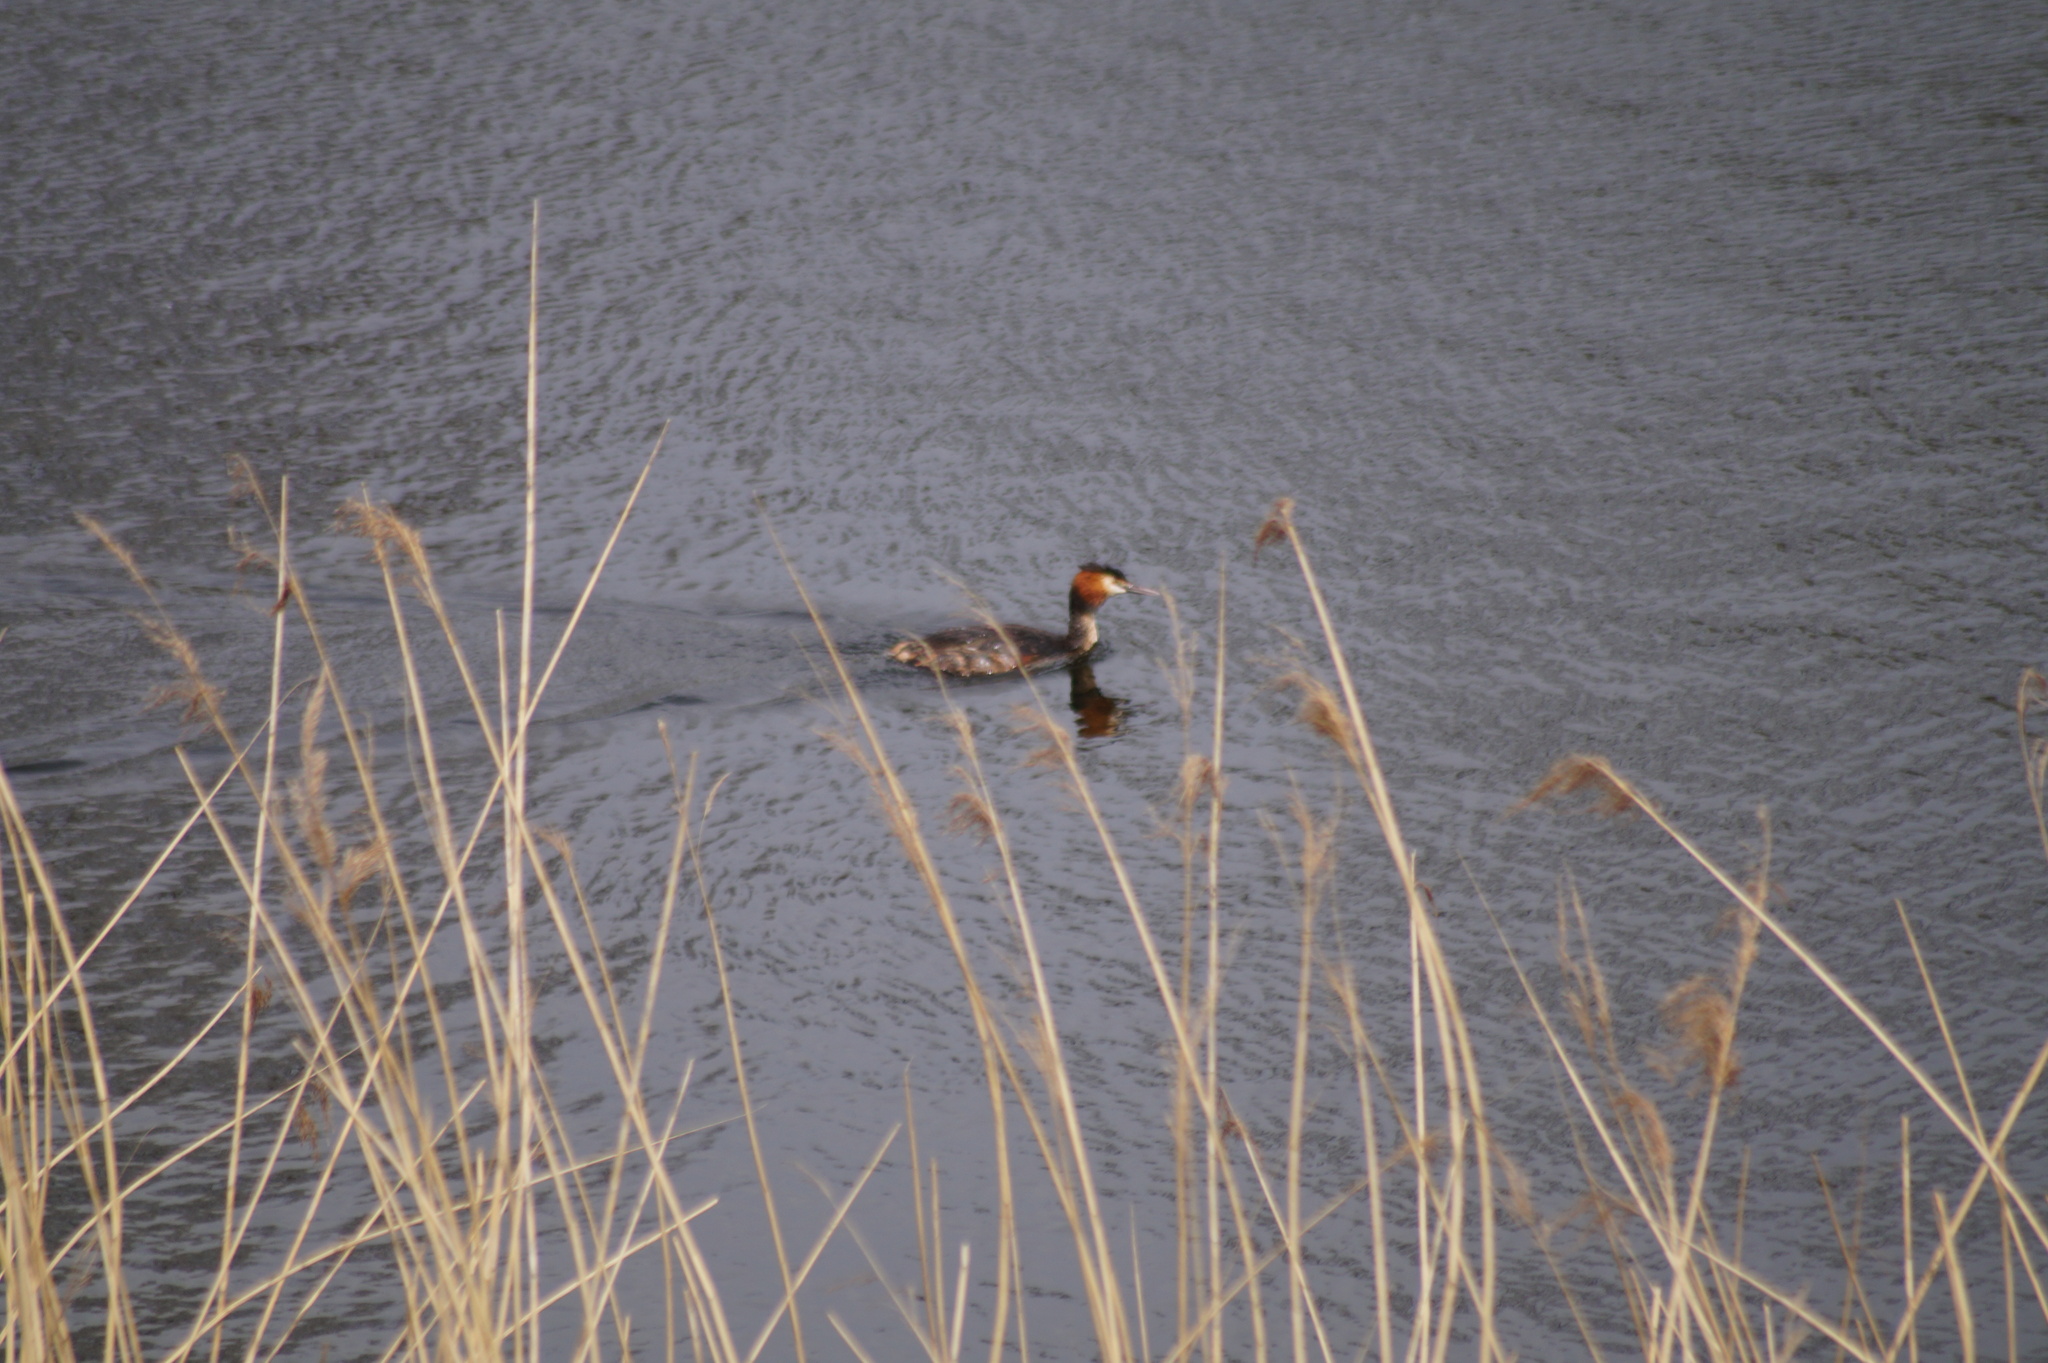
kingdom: Animalia
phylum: Chordata
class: Aves
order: Podicipediformes
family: Podicipedidae
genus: Podiceps
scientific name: Podiceps cristatus
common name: Great crested grebe
